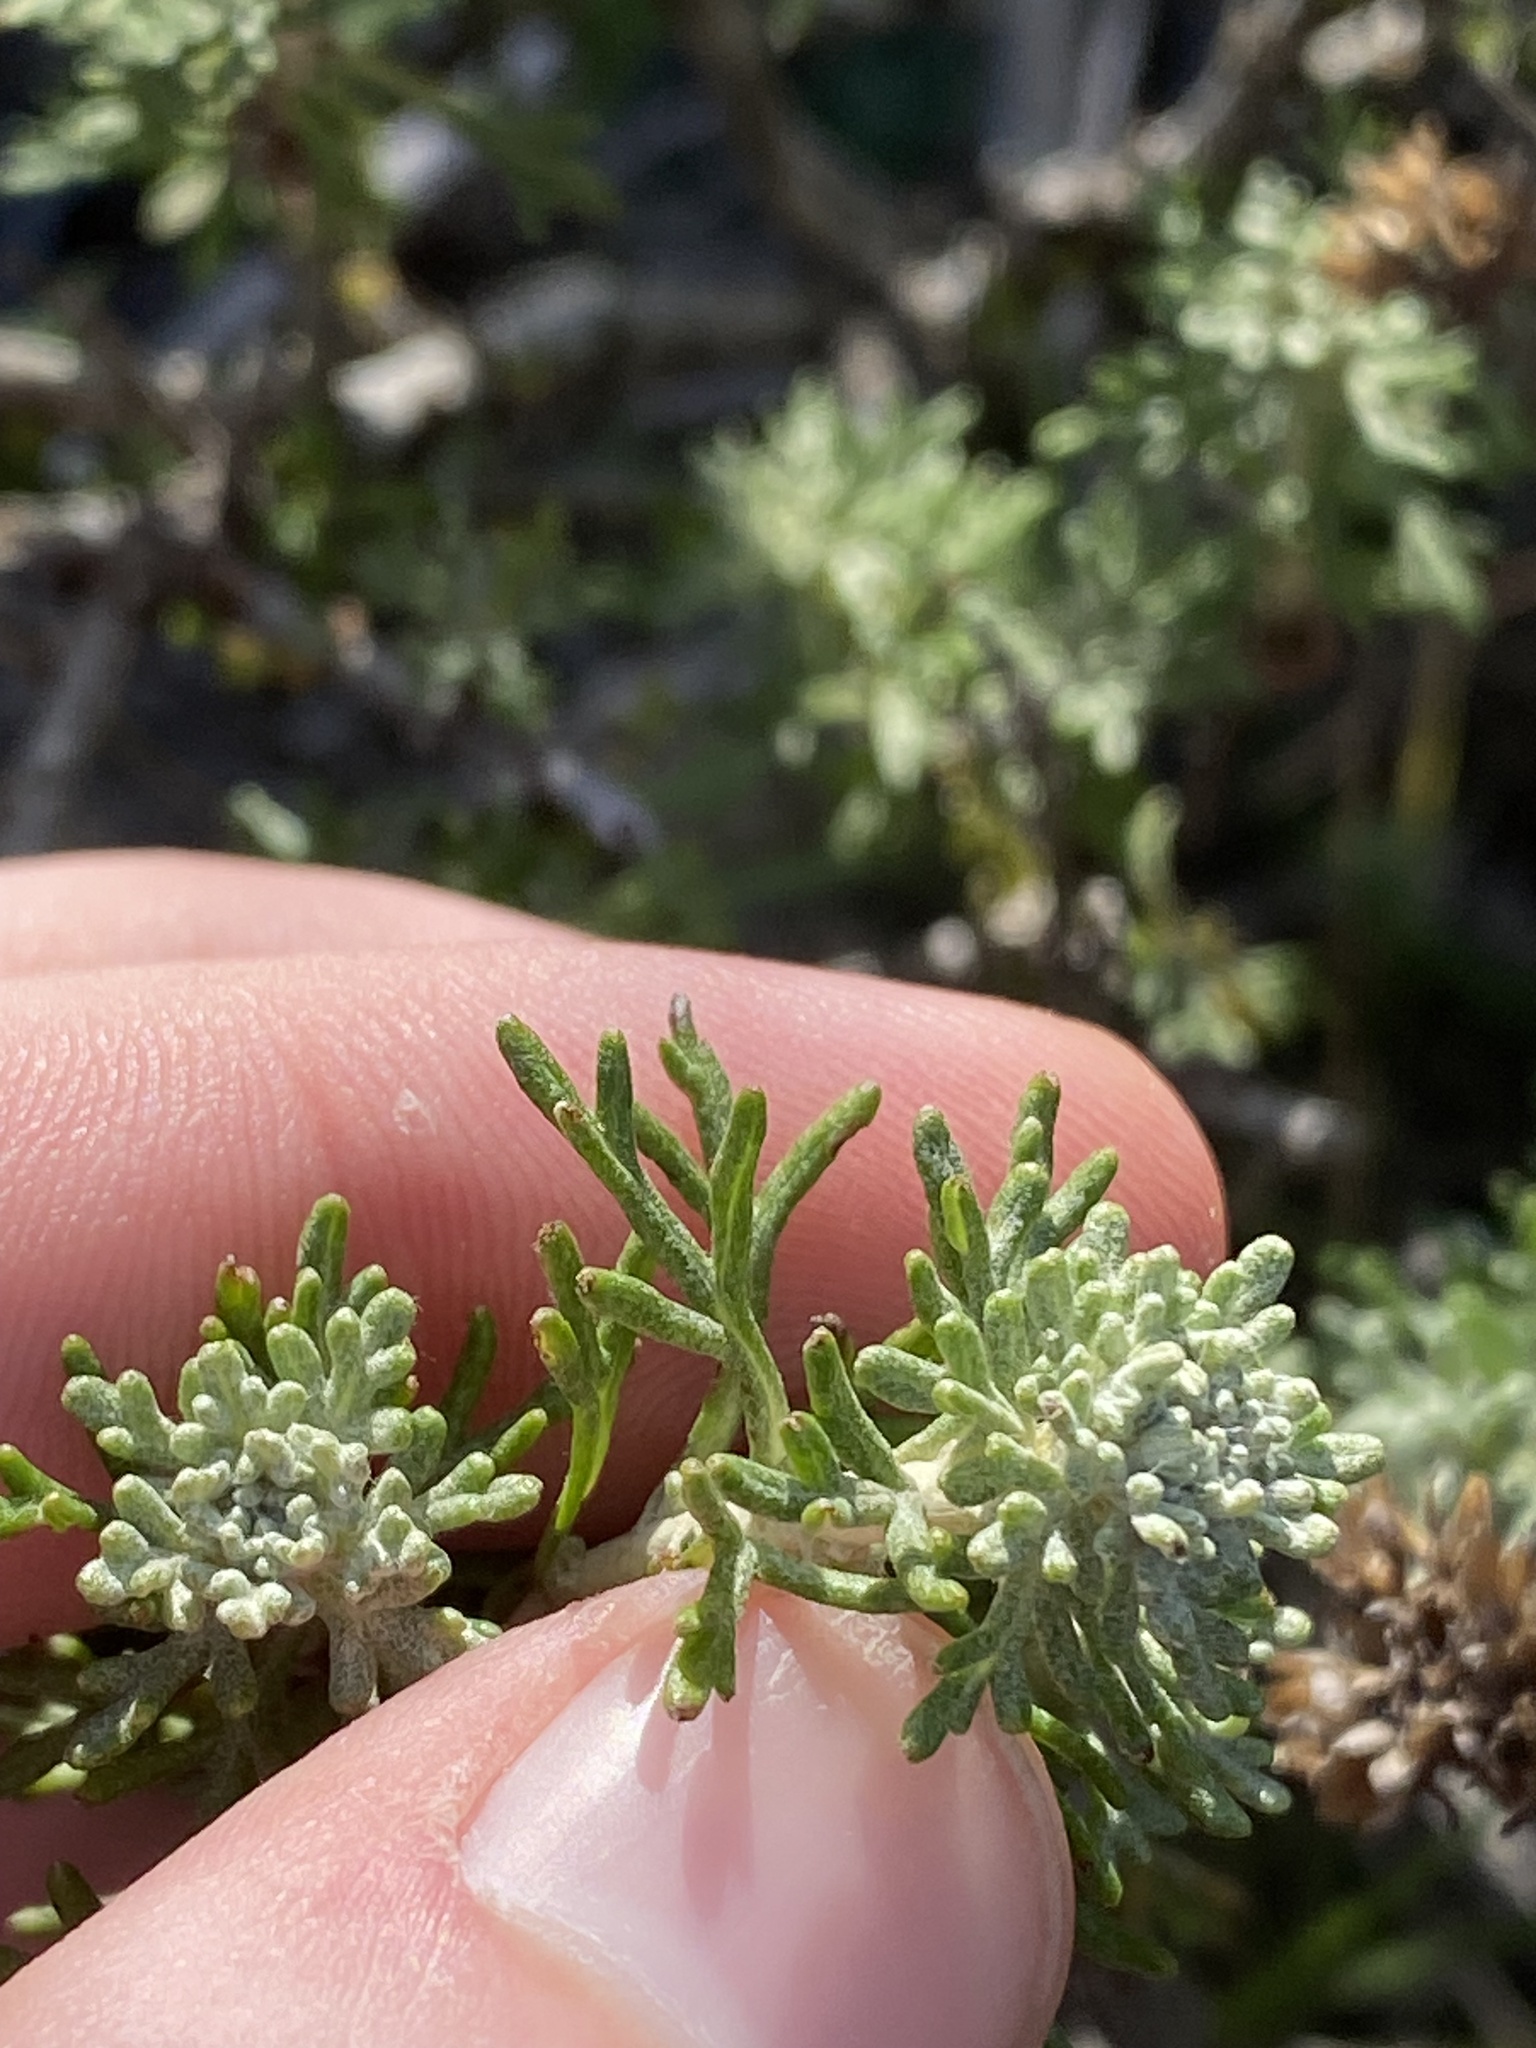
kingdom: Plantae
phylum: Tracheophyta
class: Magnoliopsida
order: Asterales
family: Asteraceae
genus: Eriophyllum
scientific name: Eriophyllum confertiflorum
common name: Golden-yarrow
